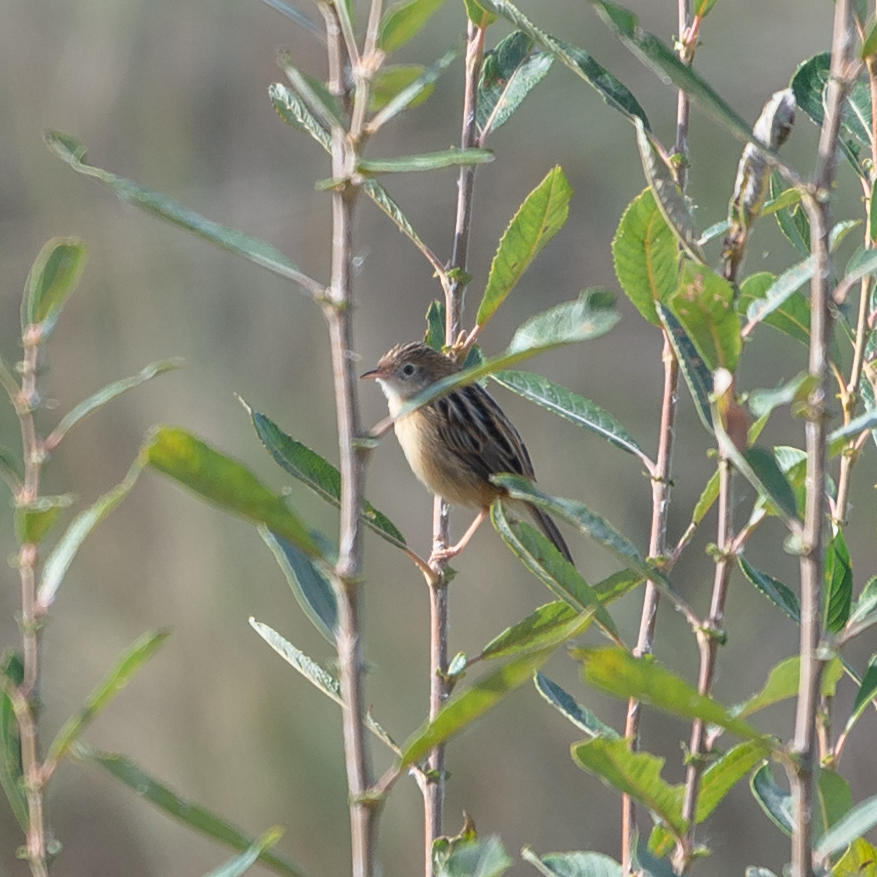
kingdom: Animalia
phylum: Chordata
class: Aves
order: Passeriformes
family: Cisticolidae
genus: Cisticola
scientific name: Cisticola juncidis
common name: Zitting cisticola
